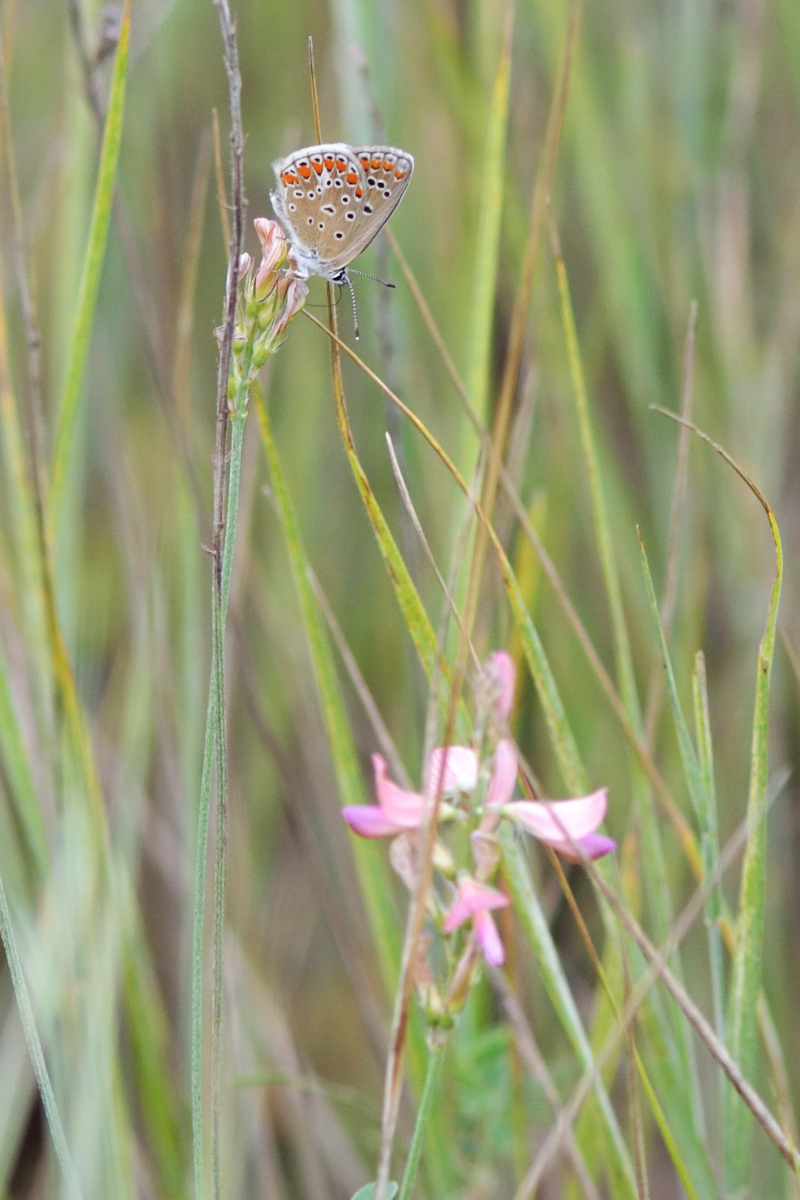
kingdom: Animalia
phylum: Arthropoda
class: Insecta
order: Lepidoptera
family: Lycaenidae
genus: Polyommatus
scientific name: Polyommatus thersites
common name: Chapman's blue
